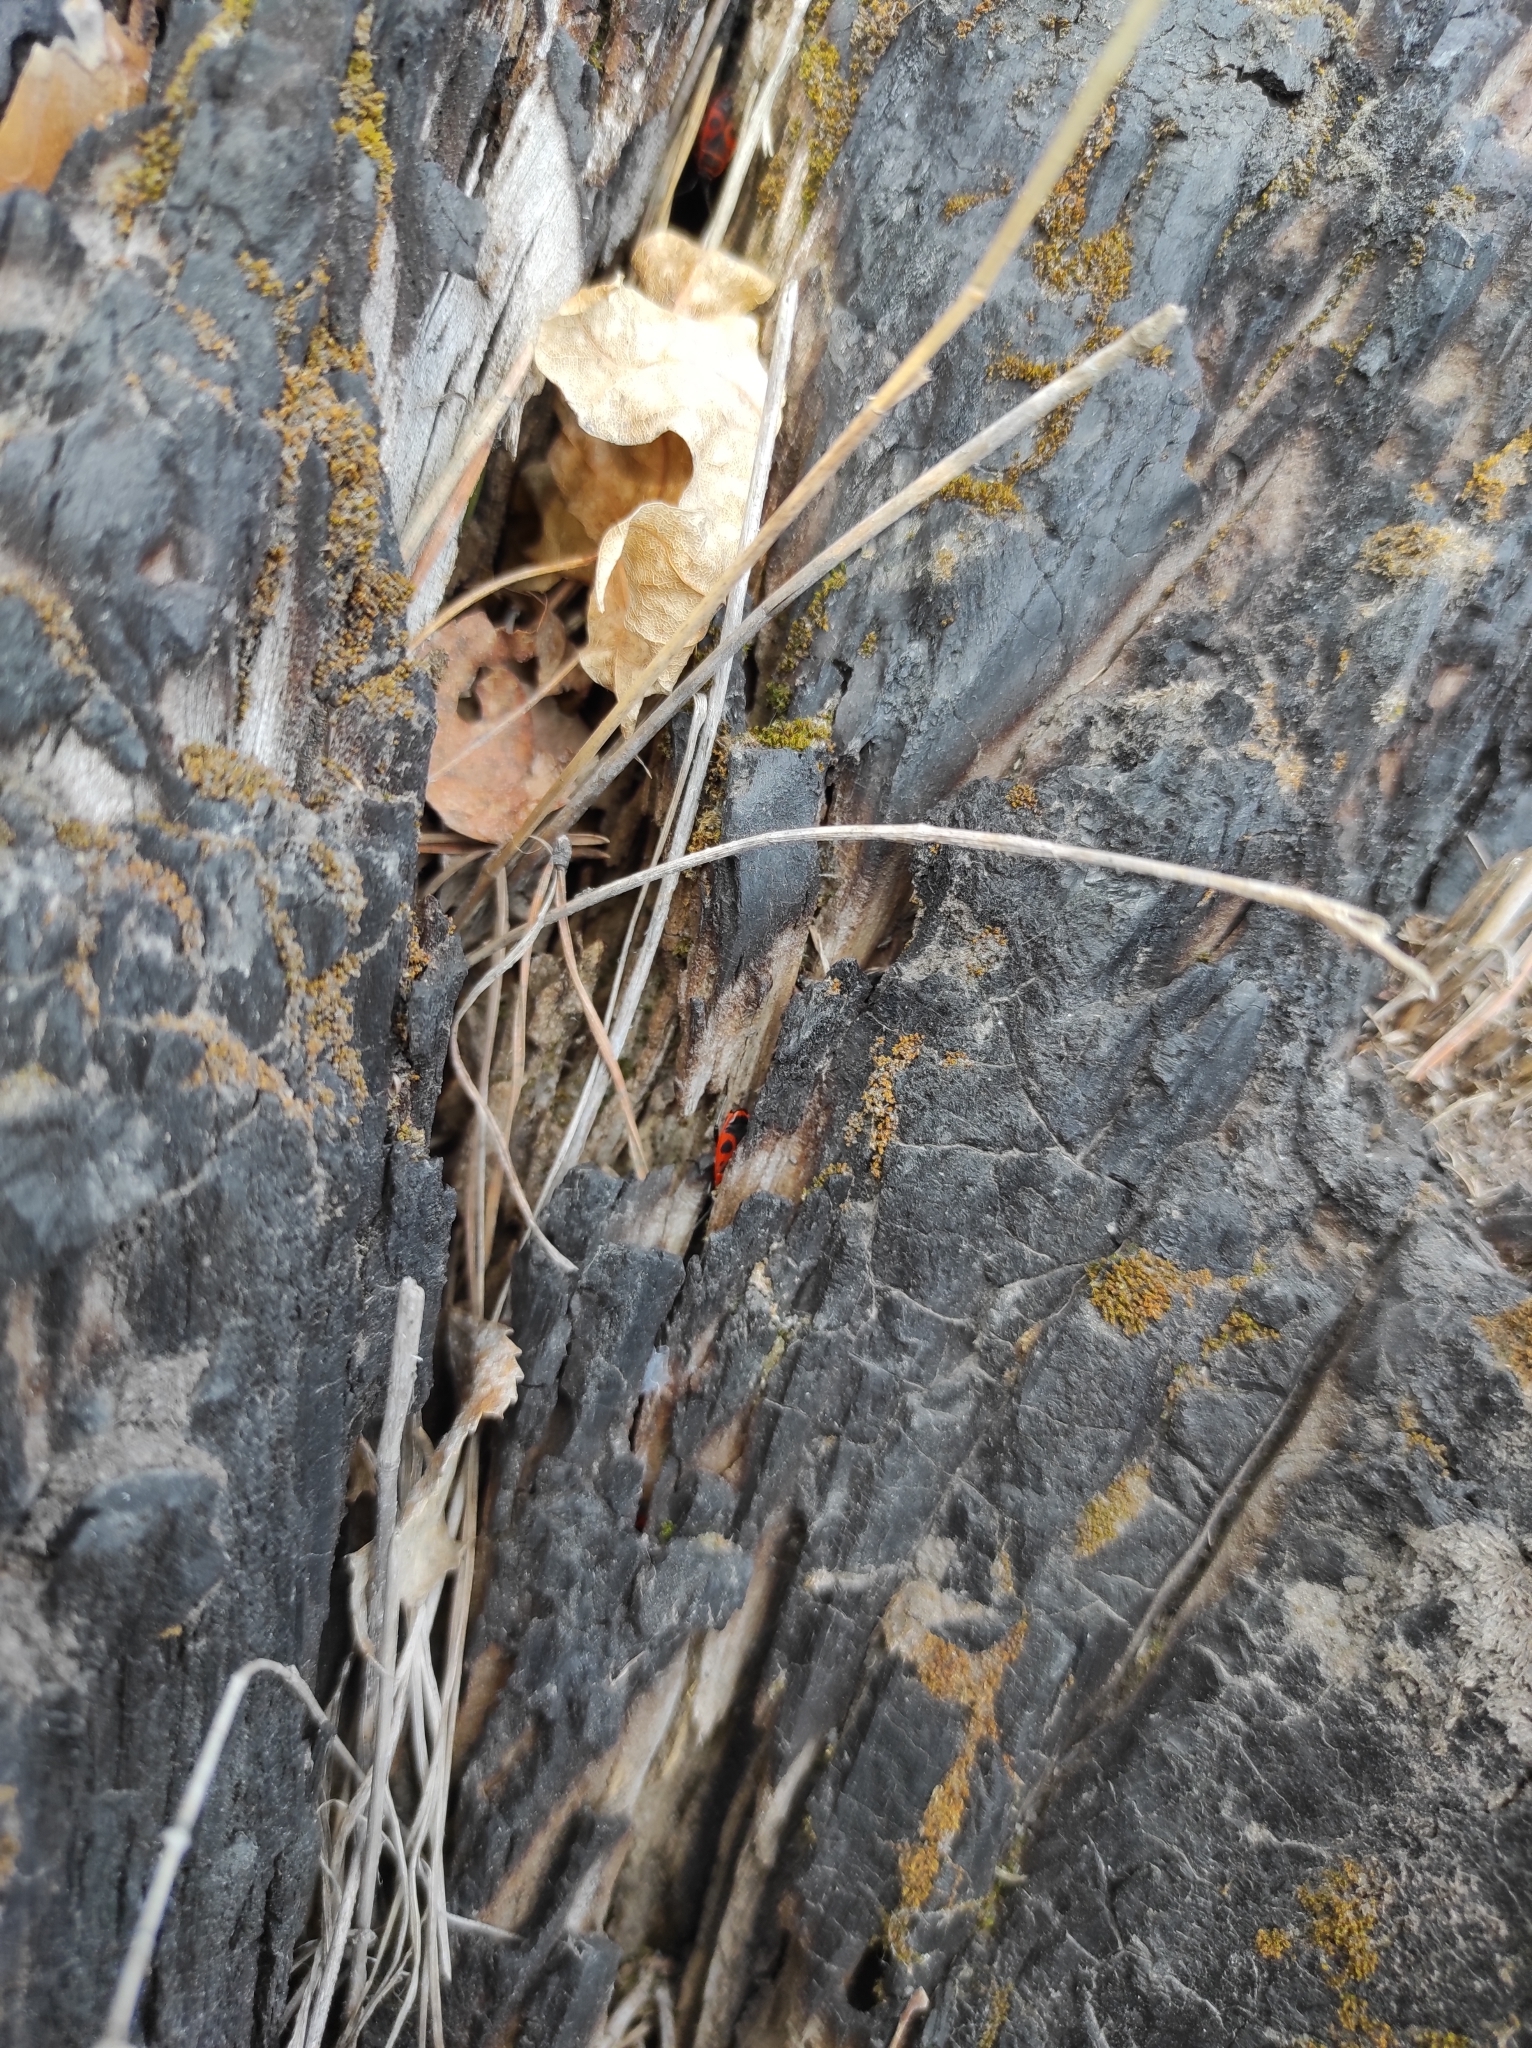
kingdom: Animalia
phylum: Arthropoda
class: Insecta
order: Hemiptera
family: Pyrrhocoridae
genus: Pyrrhocoris
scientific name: Pyrrhocoris apterus
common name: Firebug
